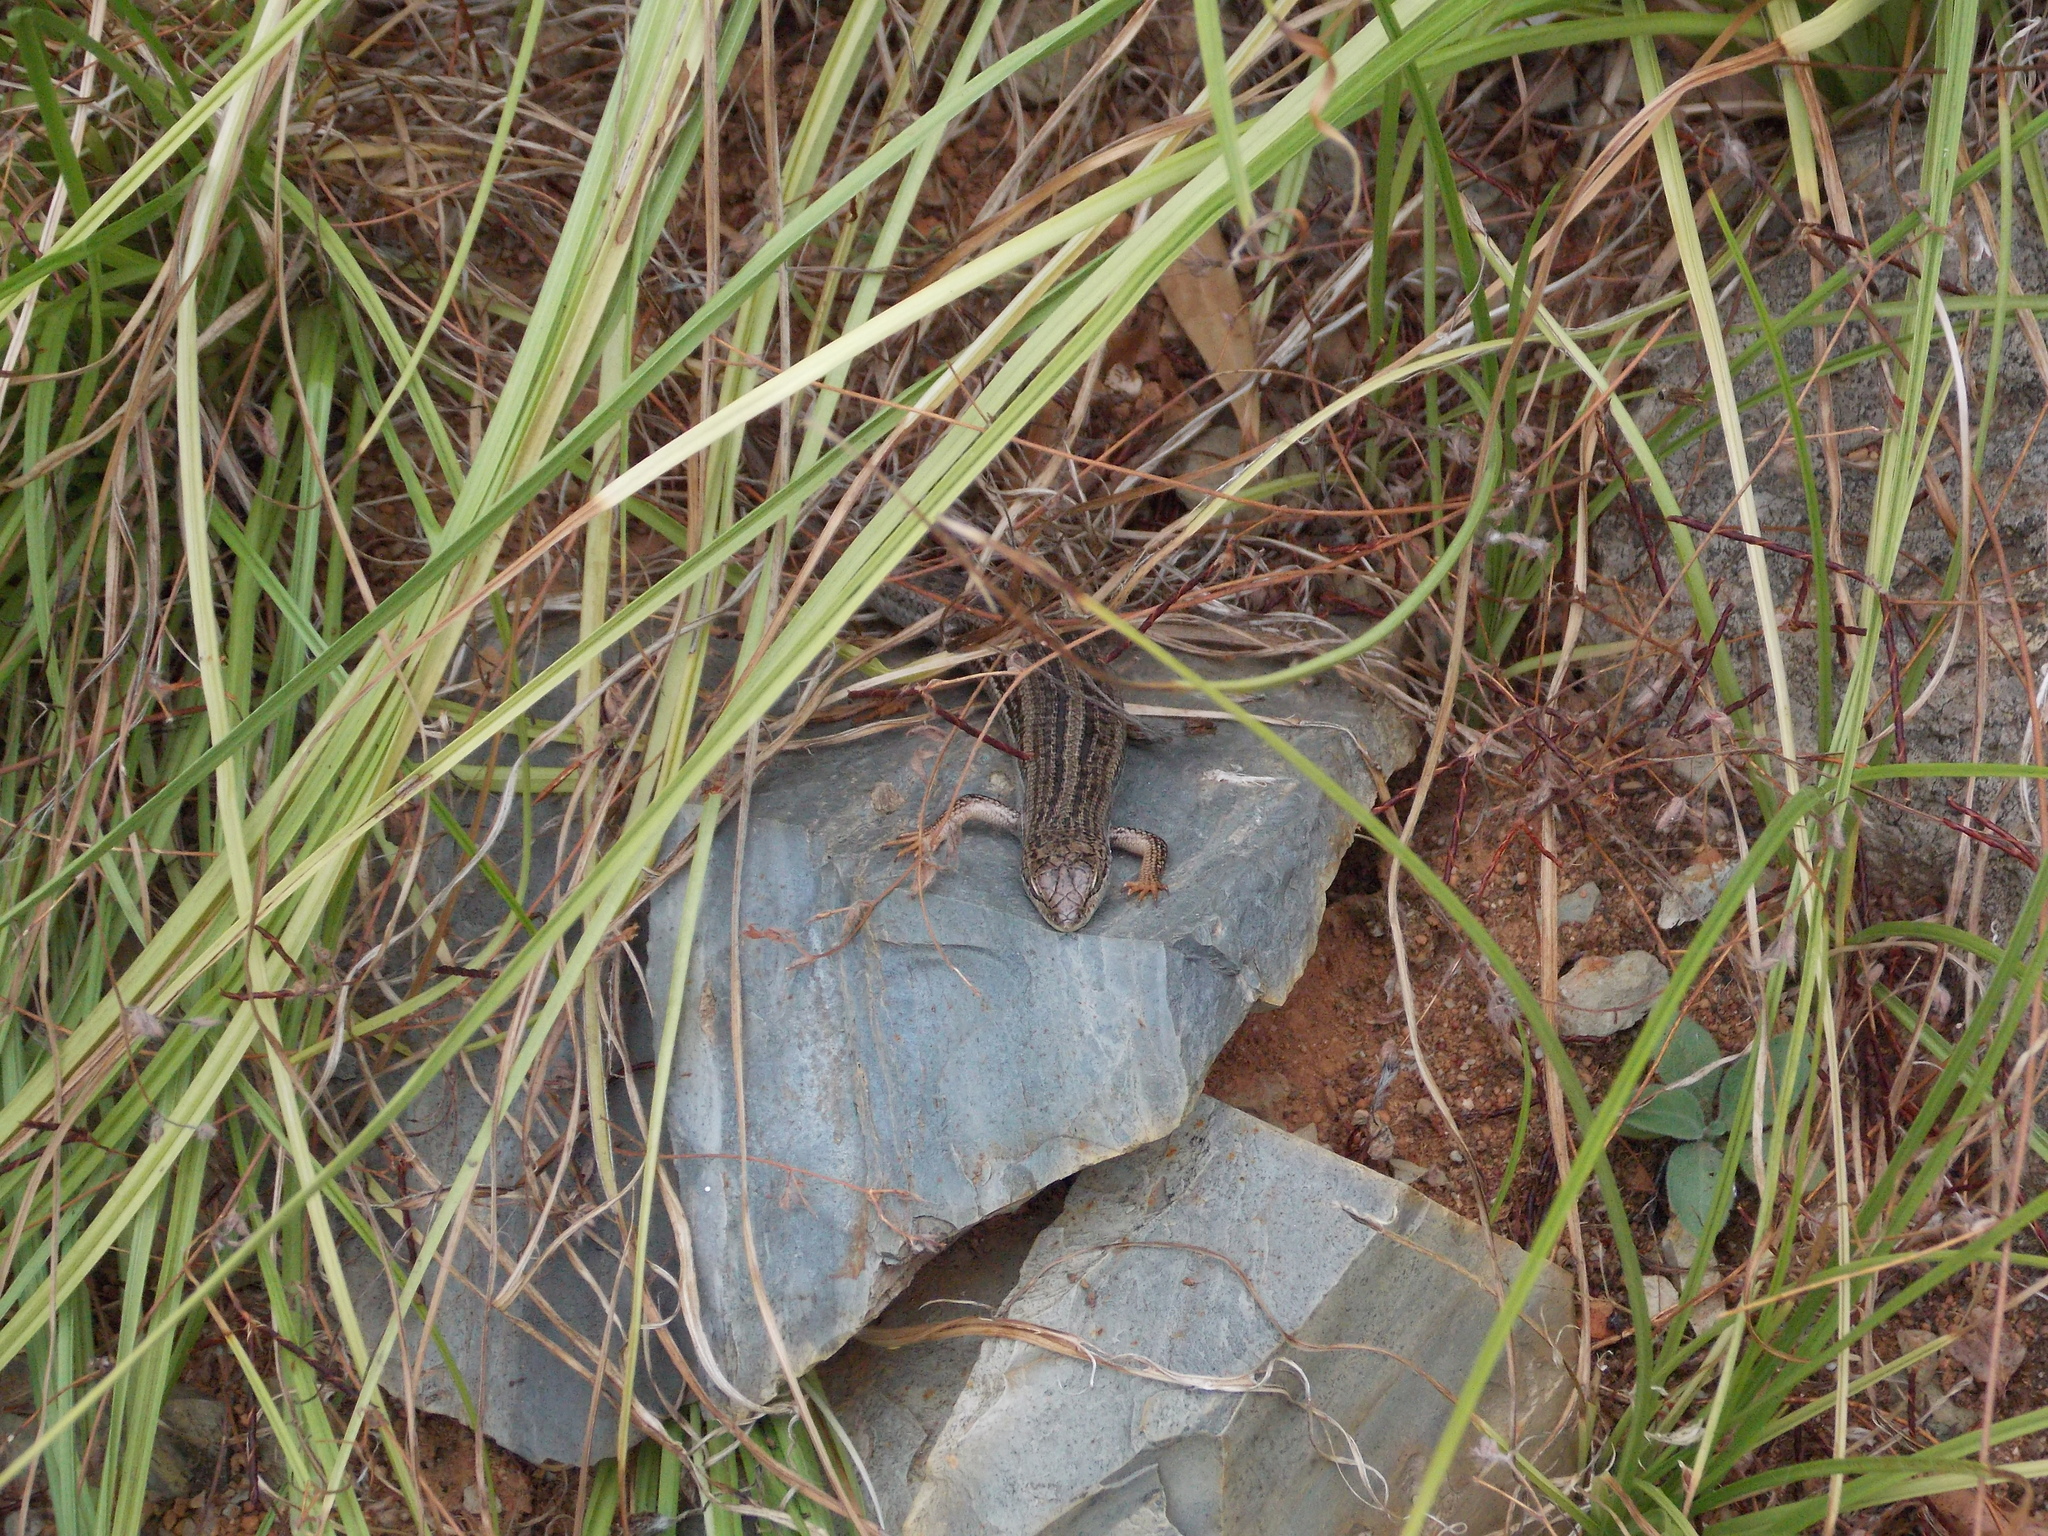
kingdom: Animalia
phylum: Chordata
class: Squamata
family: Scincidae
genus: Trachylepis
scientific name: Trachylepis homalocephala
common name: Red-sided skink
